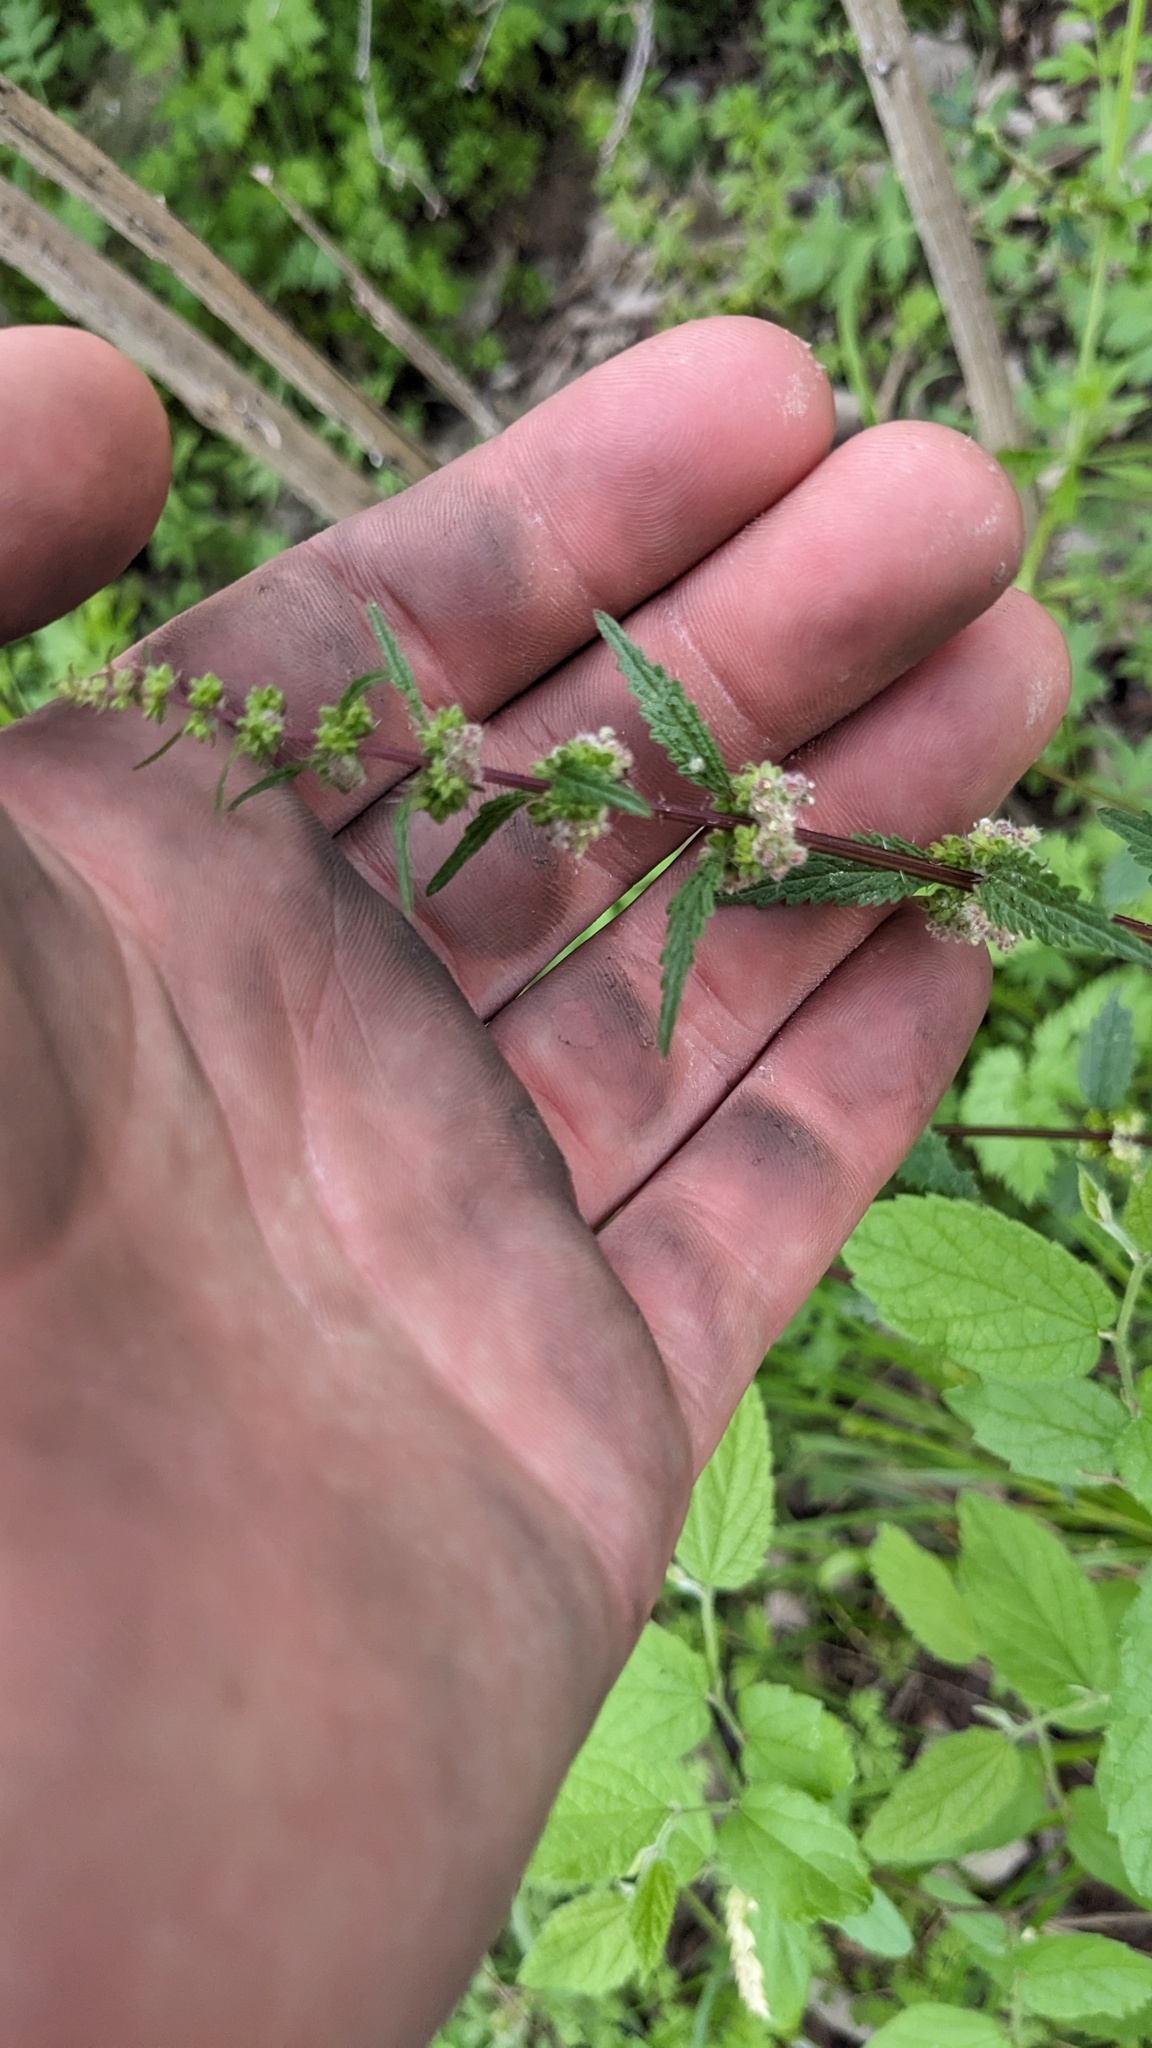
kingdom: Plantae
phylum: Tracheophyta
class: Magnoliopsida
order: Rosales
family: Urticaceae
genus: Urtica
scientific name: Urtica chamaedryoides
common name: Heart-leaf nettle
